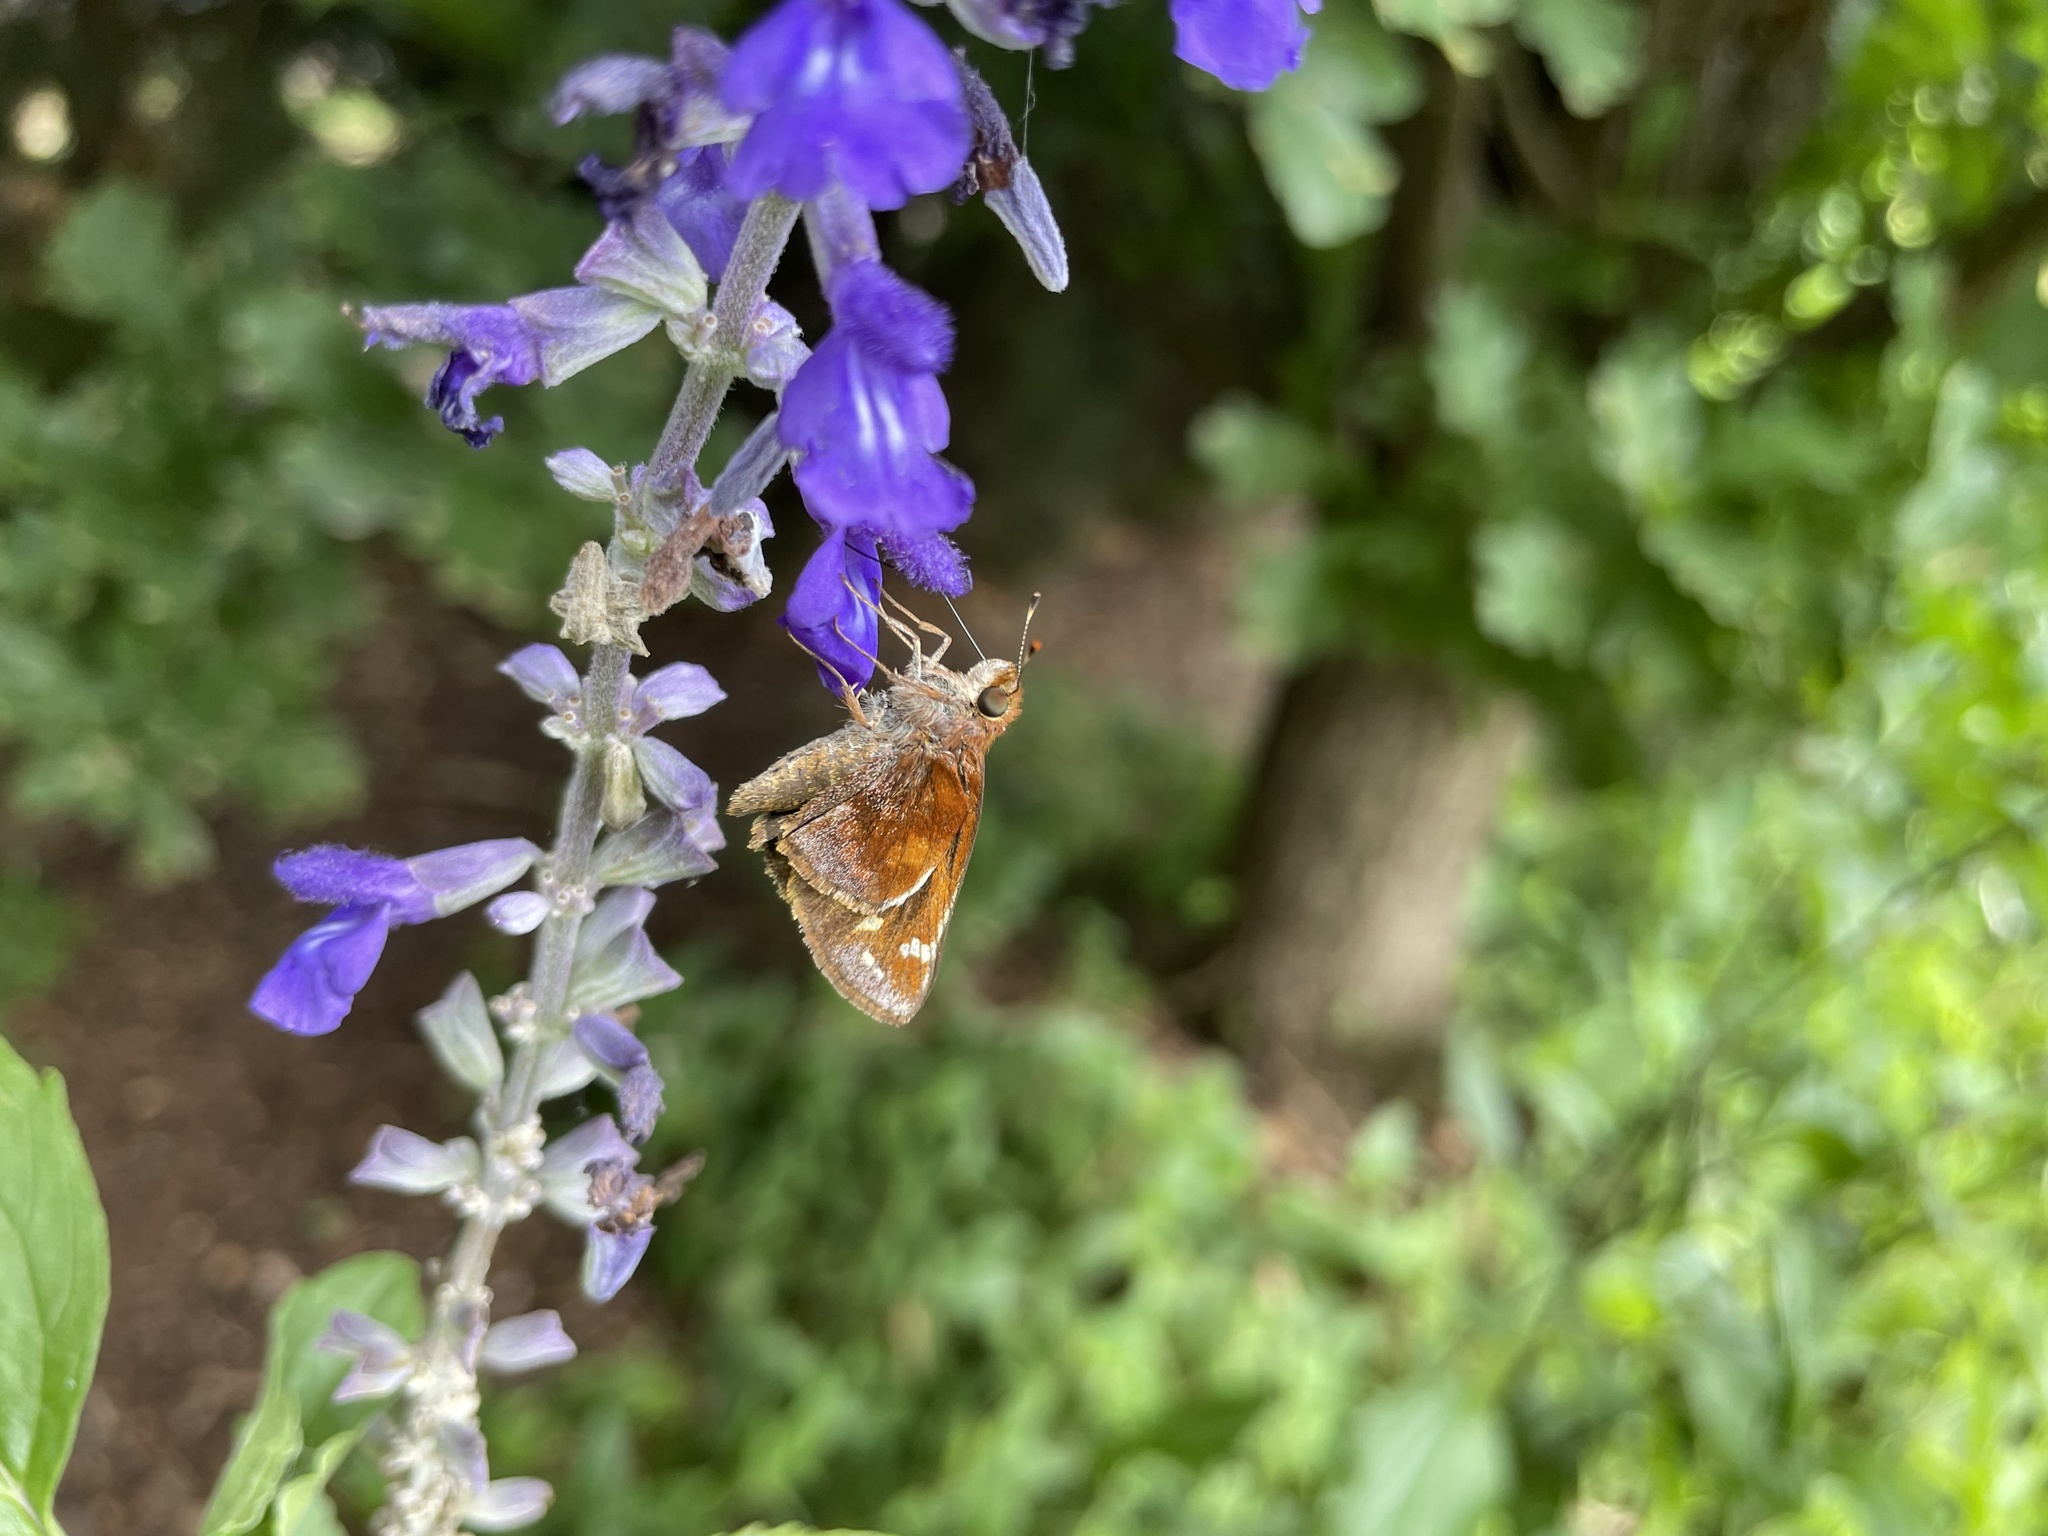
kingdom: Animalia
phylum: Arthropoda
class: Insecta
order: Lepidoptera
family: Hesperiidae
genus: Lon
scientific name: Lon zabulon
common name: Zabulon skipper
